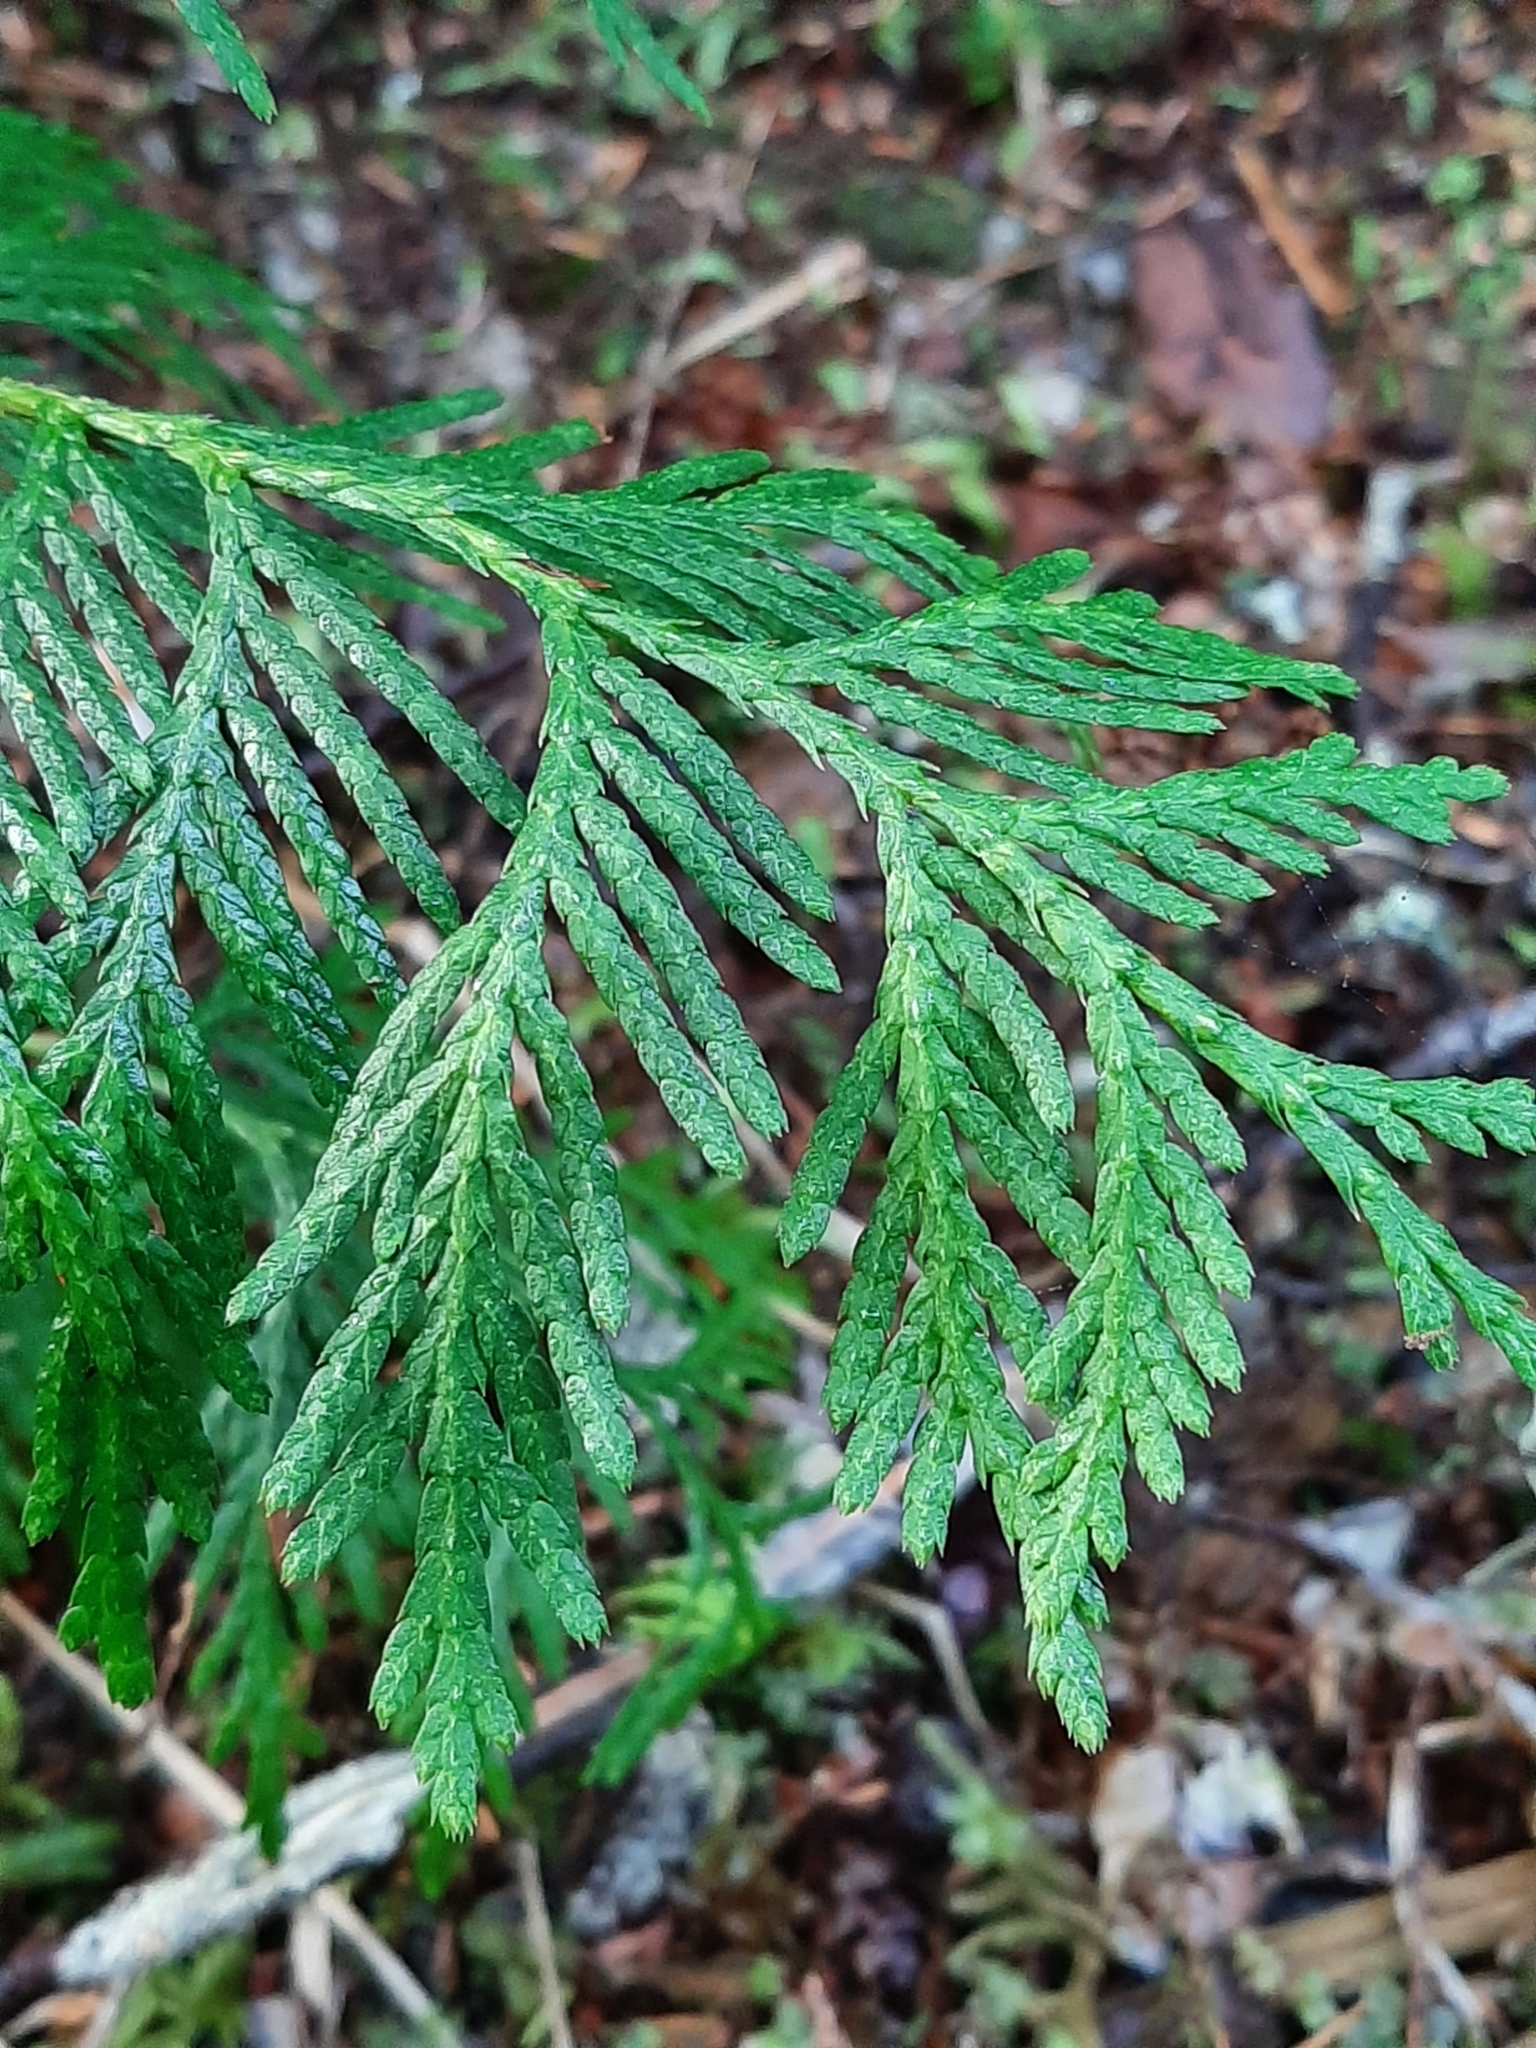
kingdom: Plantae
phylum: Tracheophyta
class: Pinopsida
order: Pinales
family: Cupressaceae
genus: Thuja
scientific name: Thuja plicata
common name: Western red-cedar
